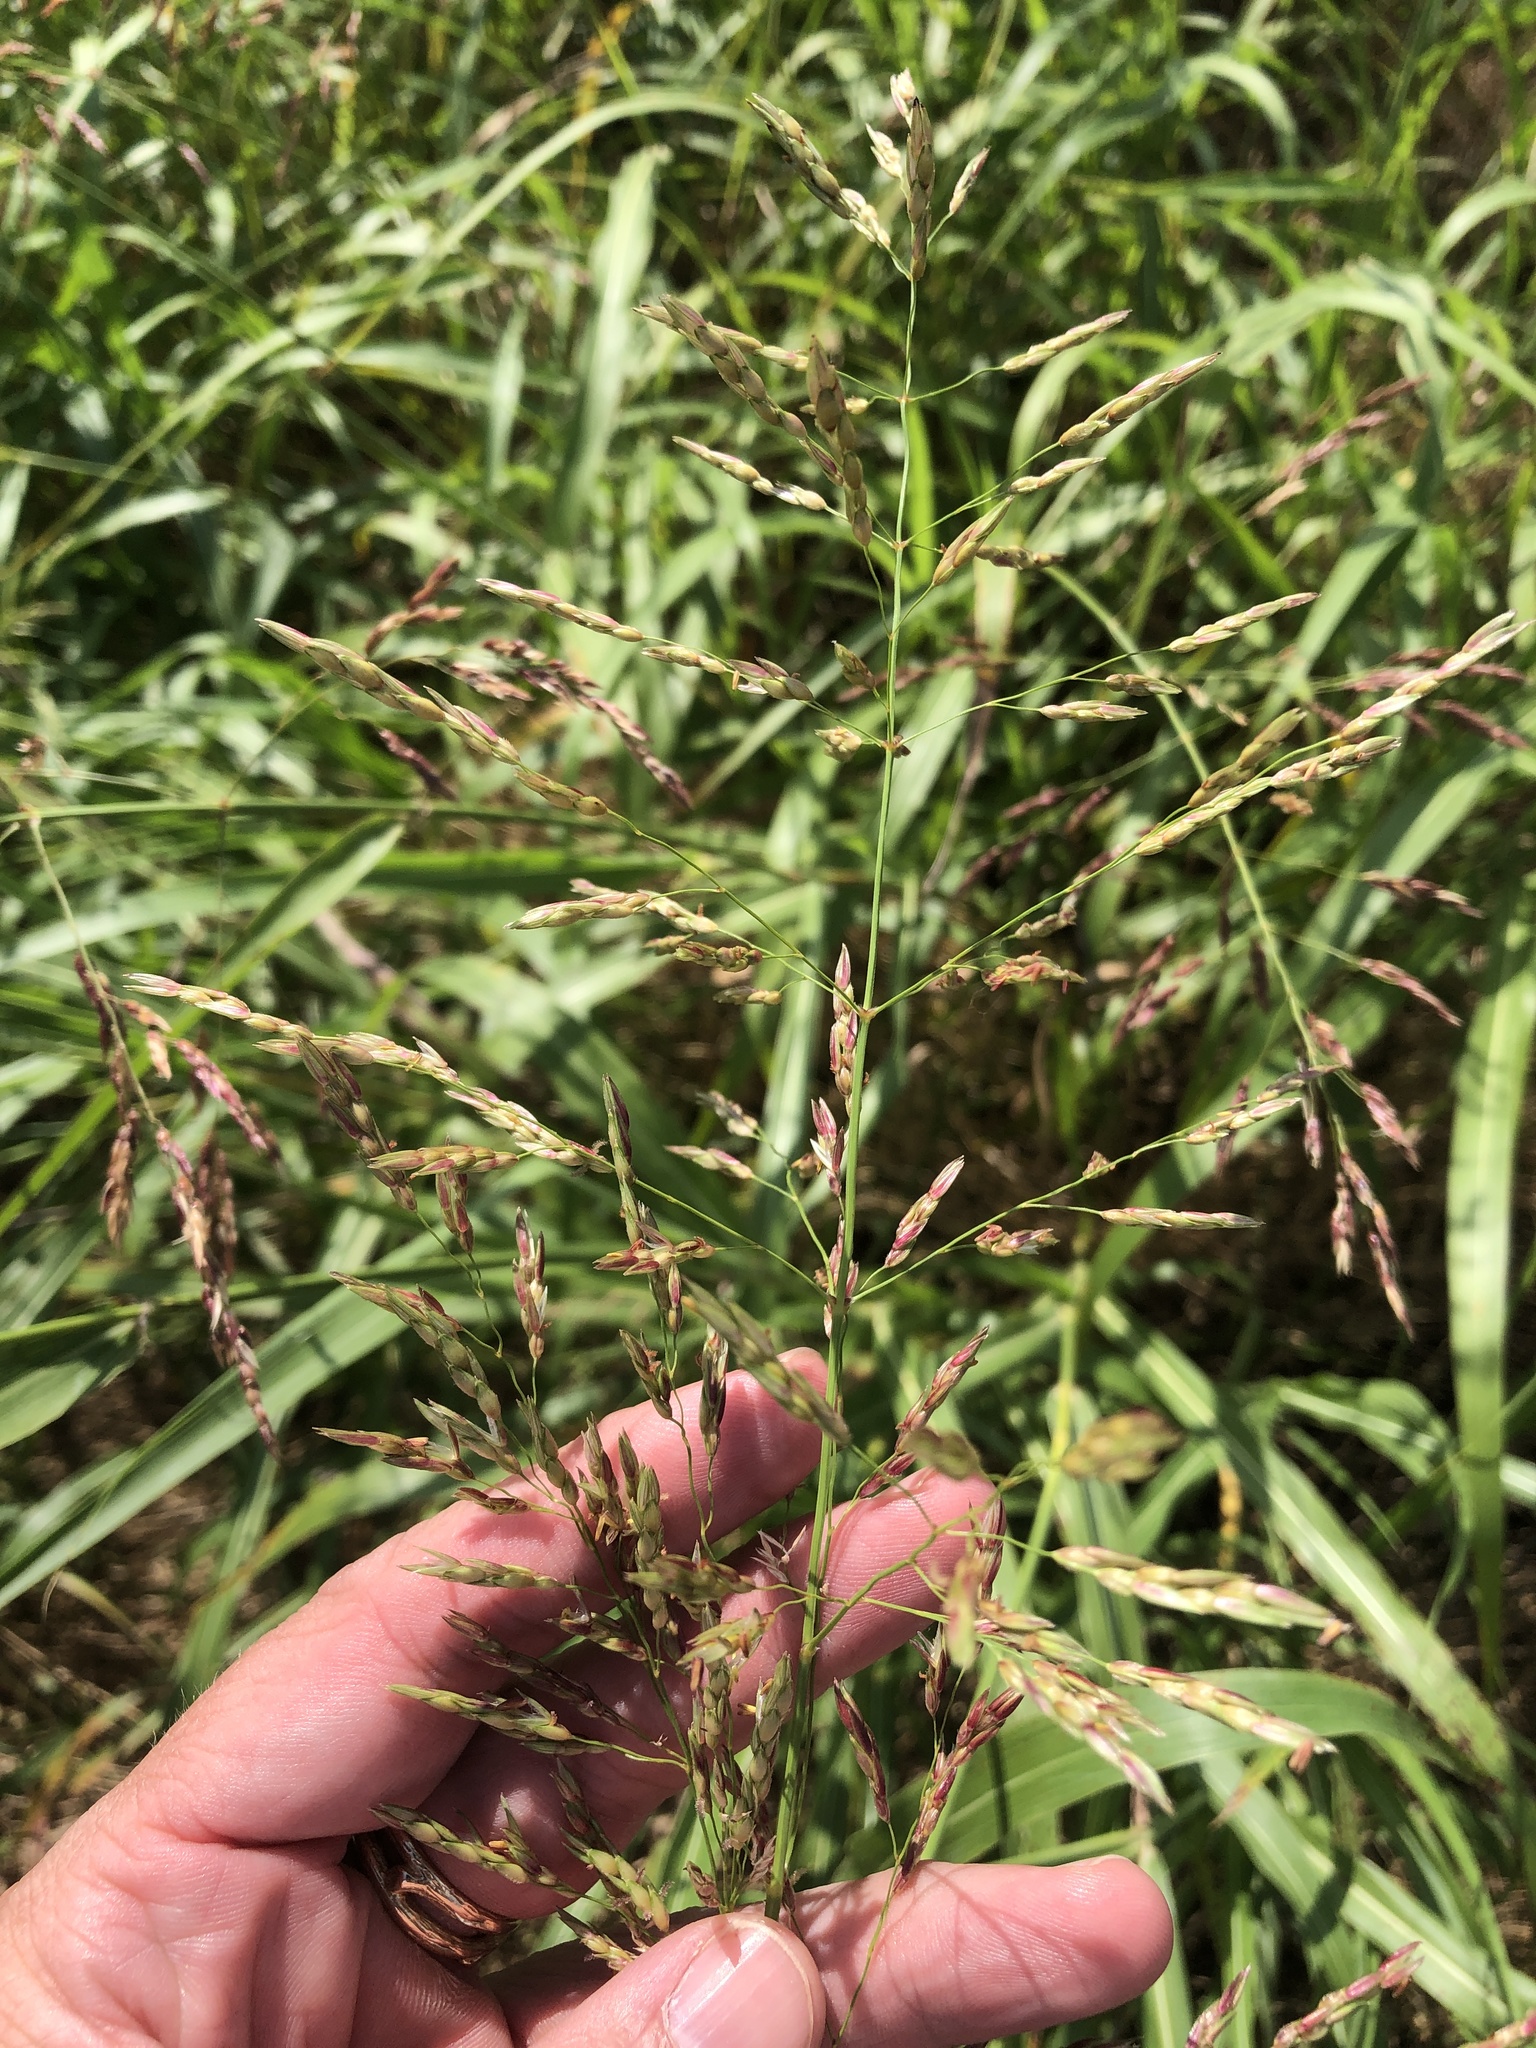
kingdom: Plantae
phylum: Tracheophyta
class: Liliopsida
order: Poales
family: Poaceae
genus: Sorghum
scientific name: Sorghum halepense
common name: Johnson-grass
